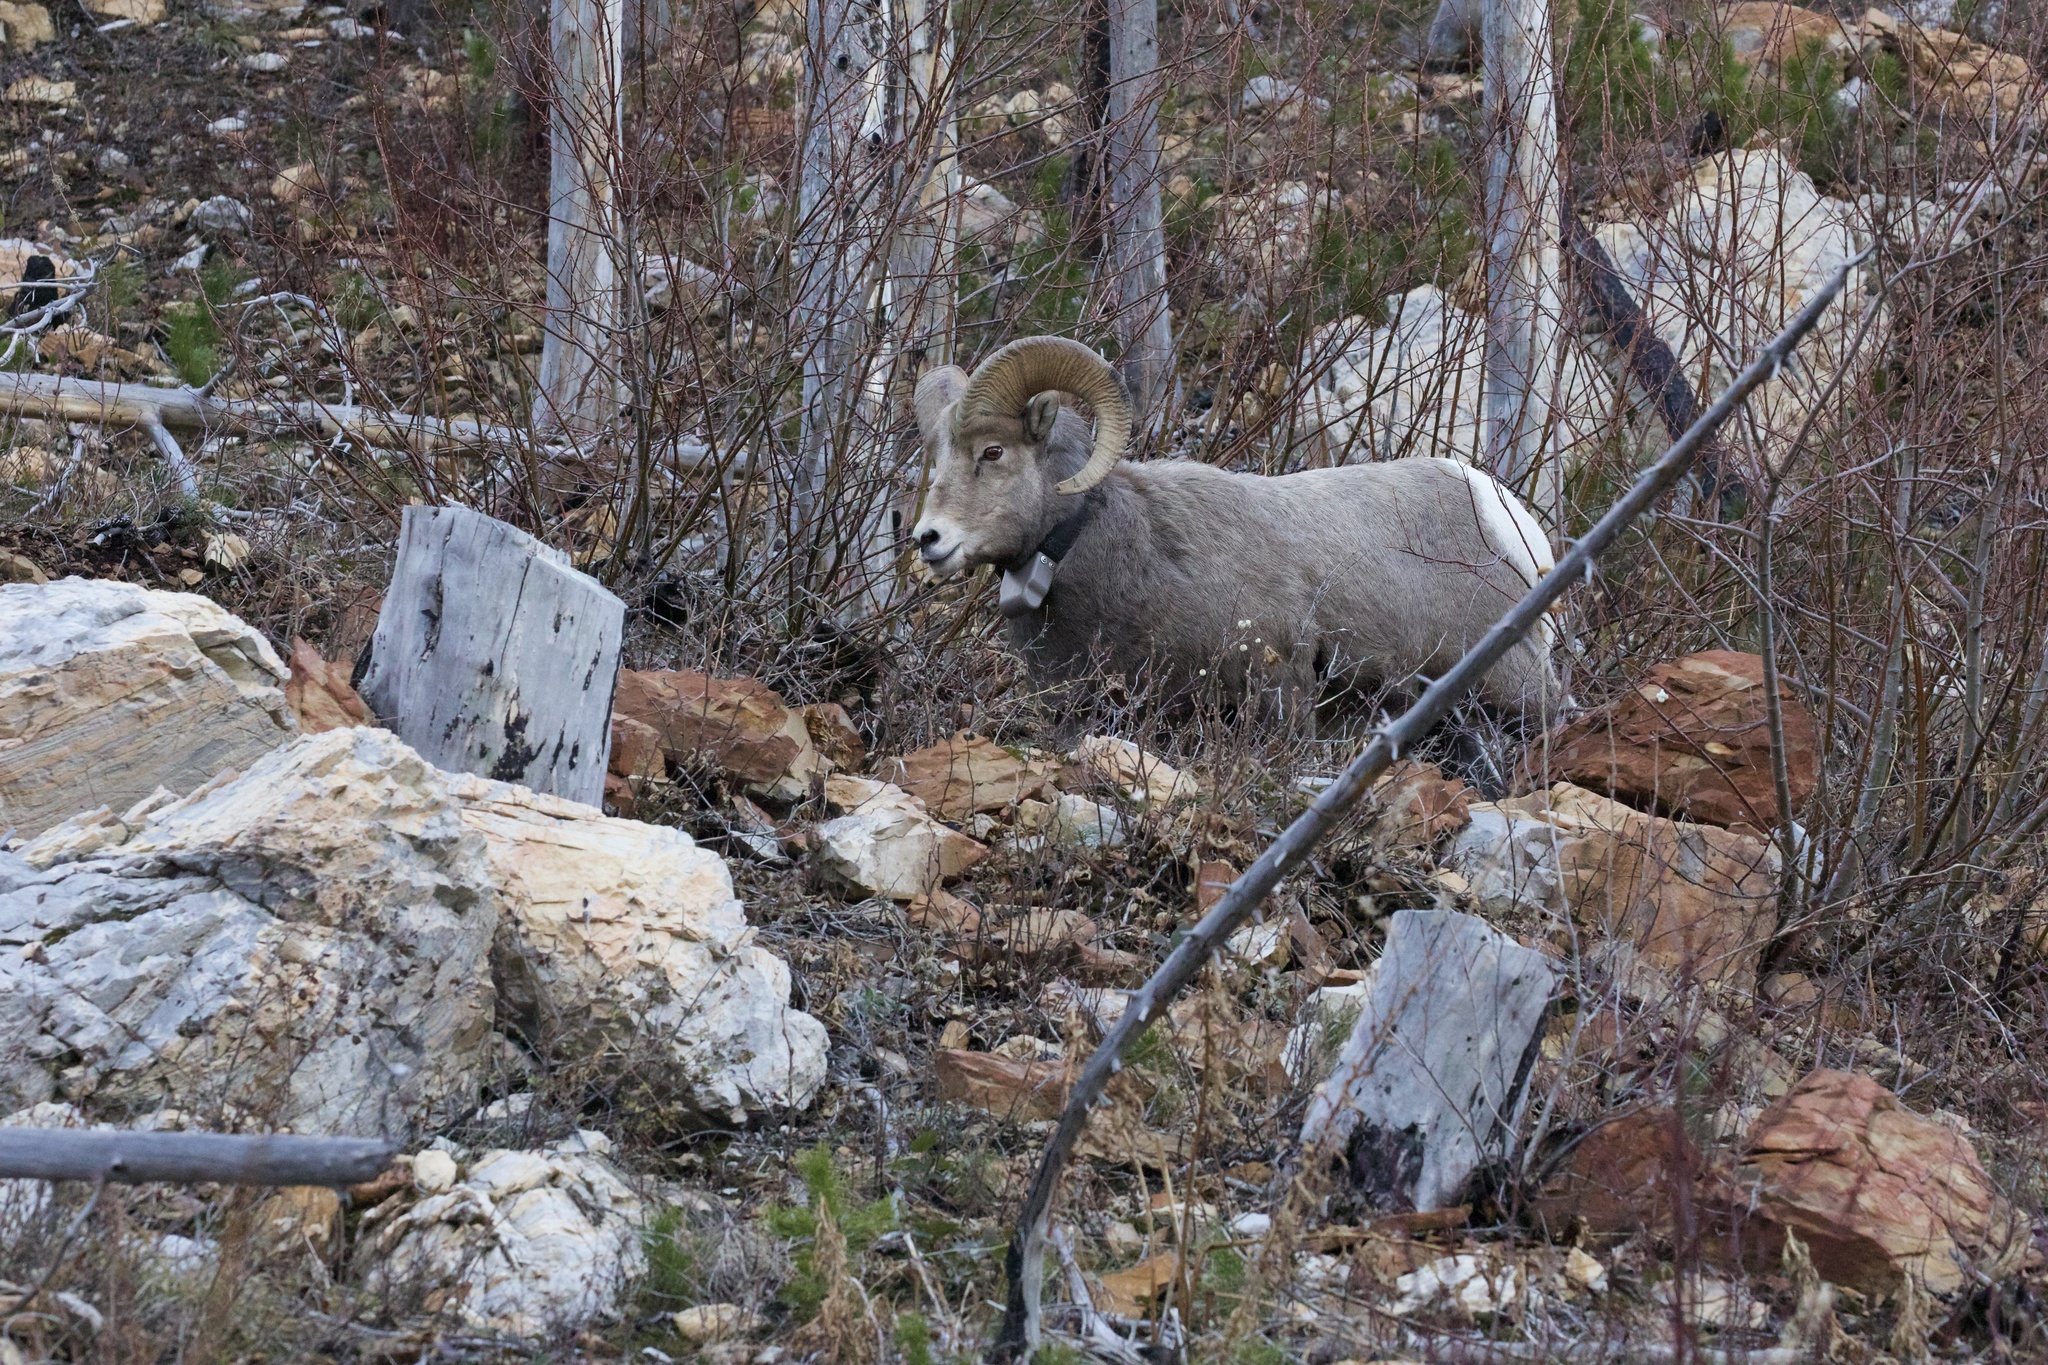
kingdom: Animalia
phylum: Chordata
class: Mammalia
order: Artiodactyla
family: Bovidae
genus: Ovis
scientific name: Ovis canadensis
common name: Bighorn sheep
